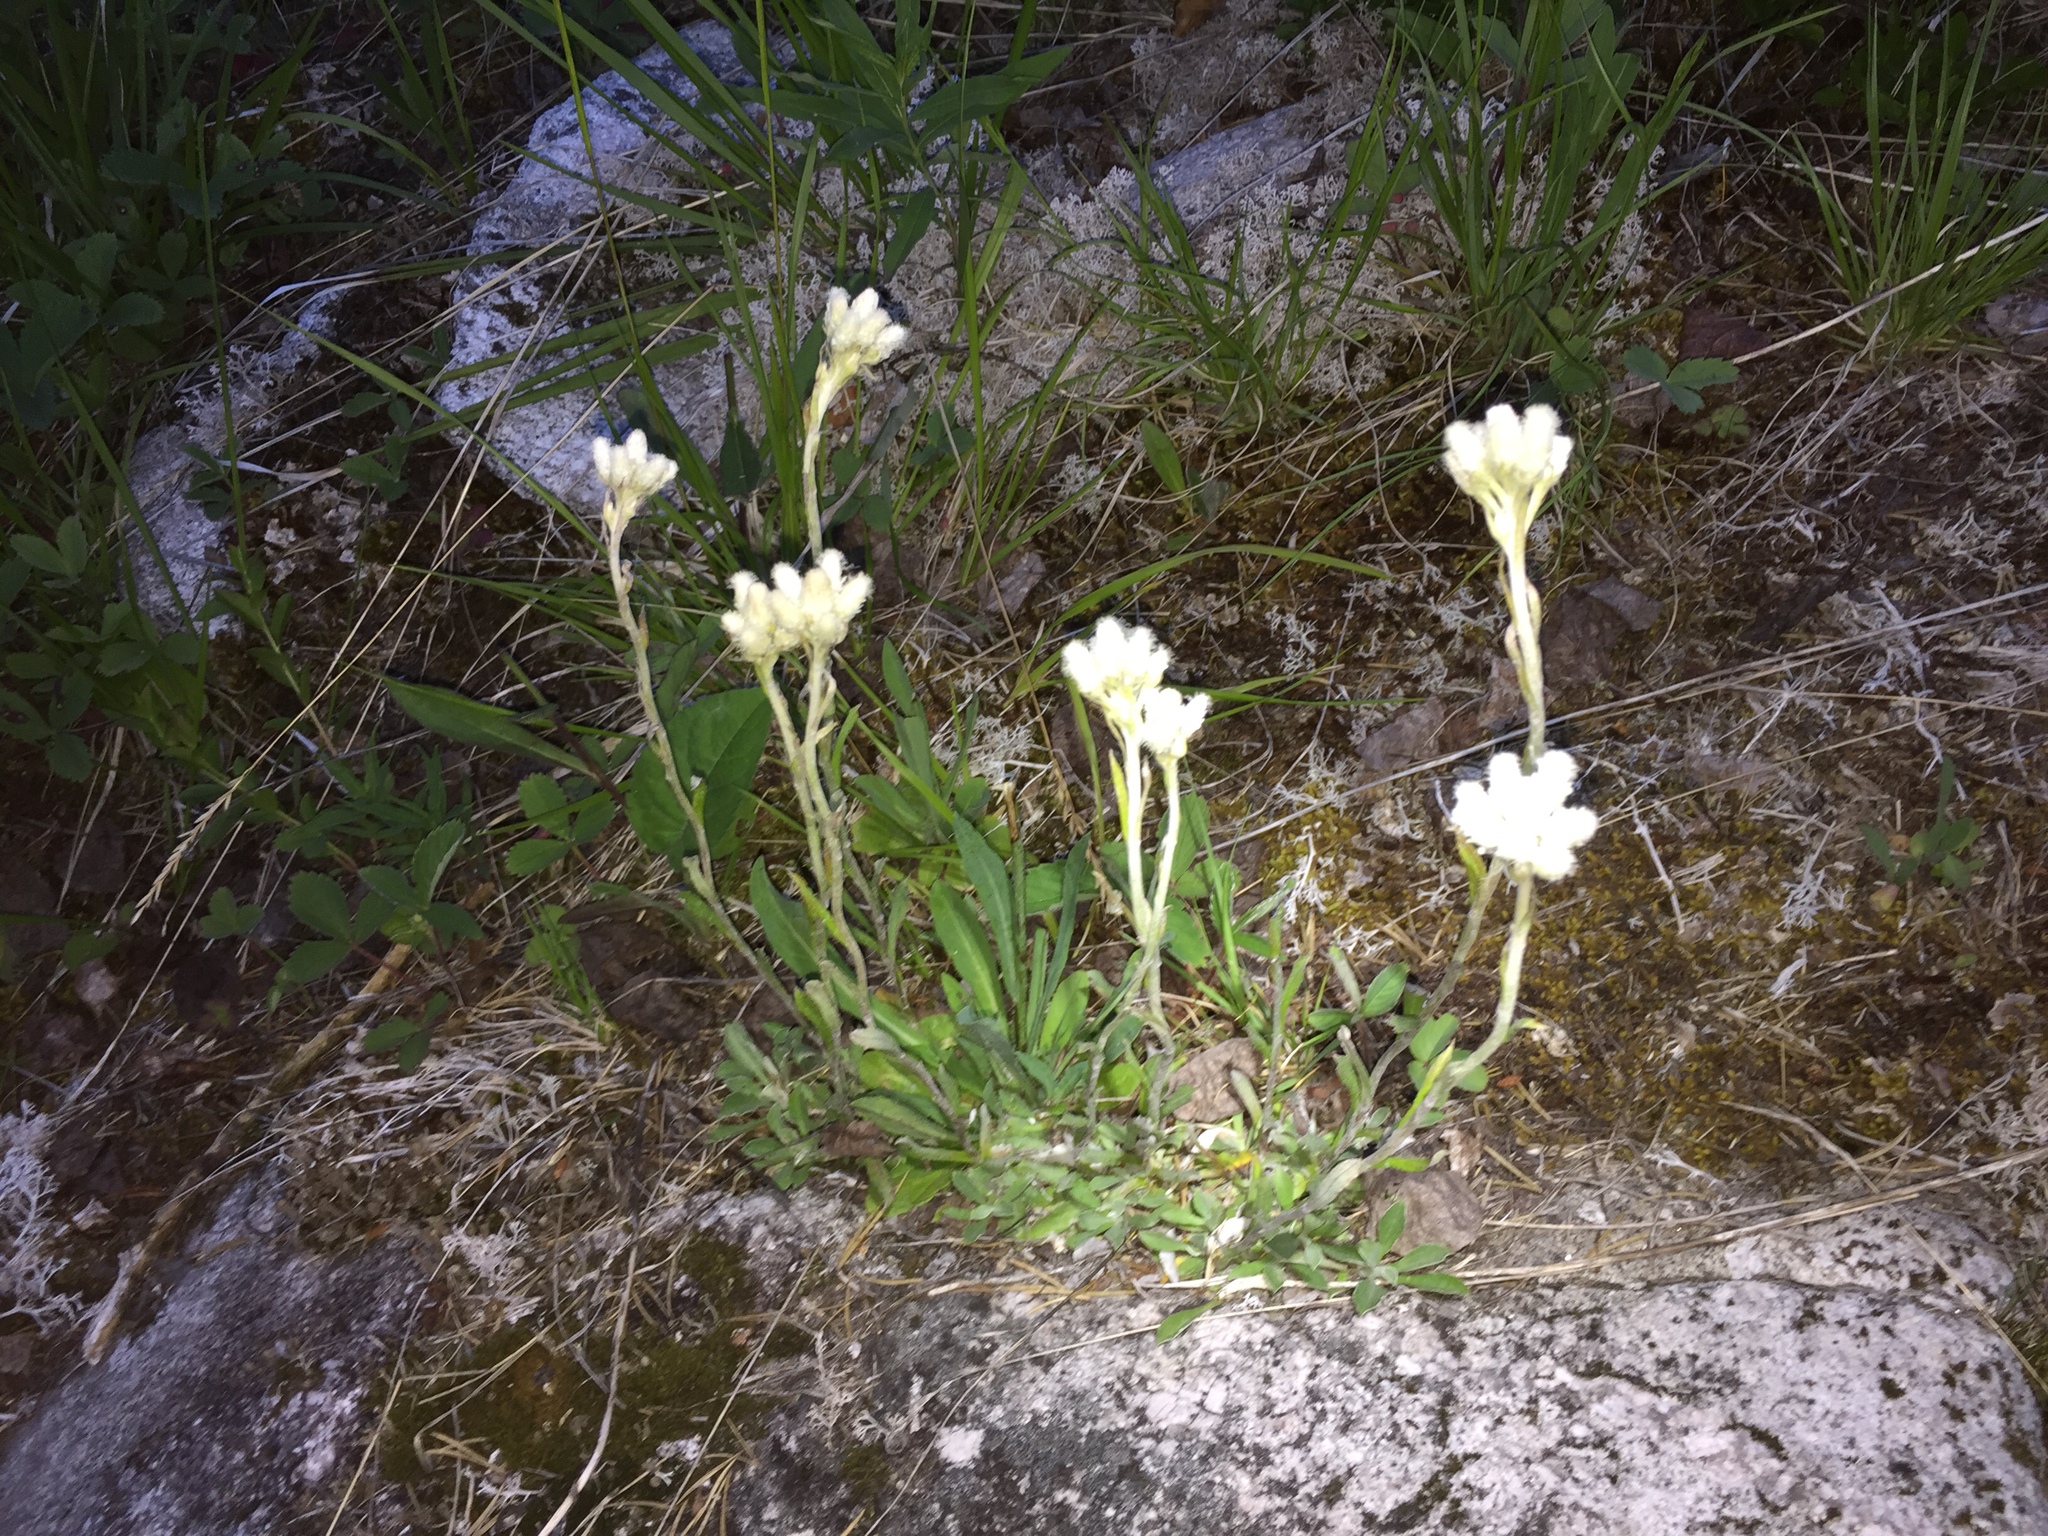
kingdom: Plantae
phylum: Tracheophyta
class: Magnoliopsida
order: Asterales
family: Asteraceae
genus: Antennaria
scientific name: Antennaria howellii
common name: Howell's pussytoes
